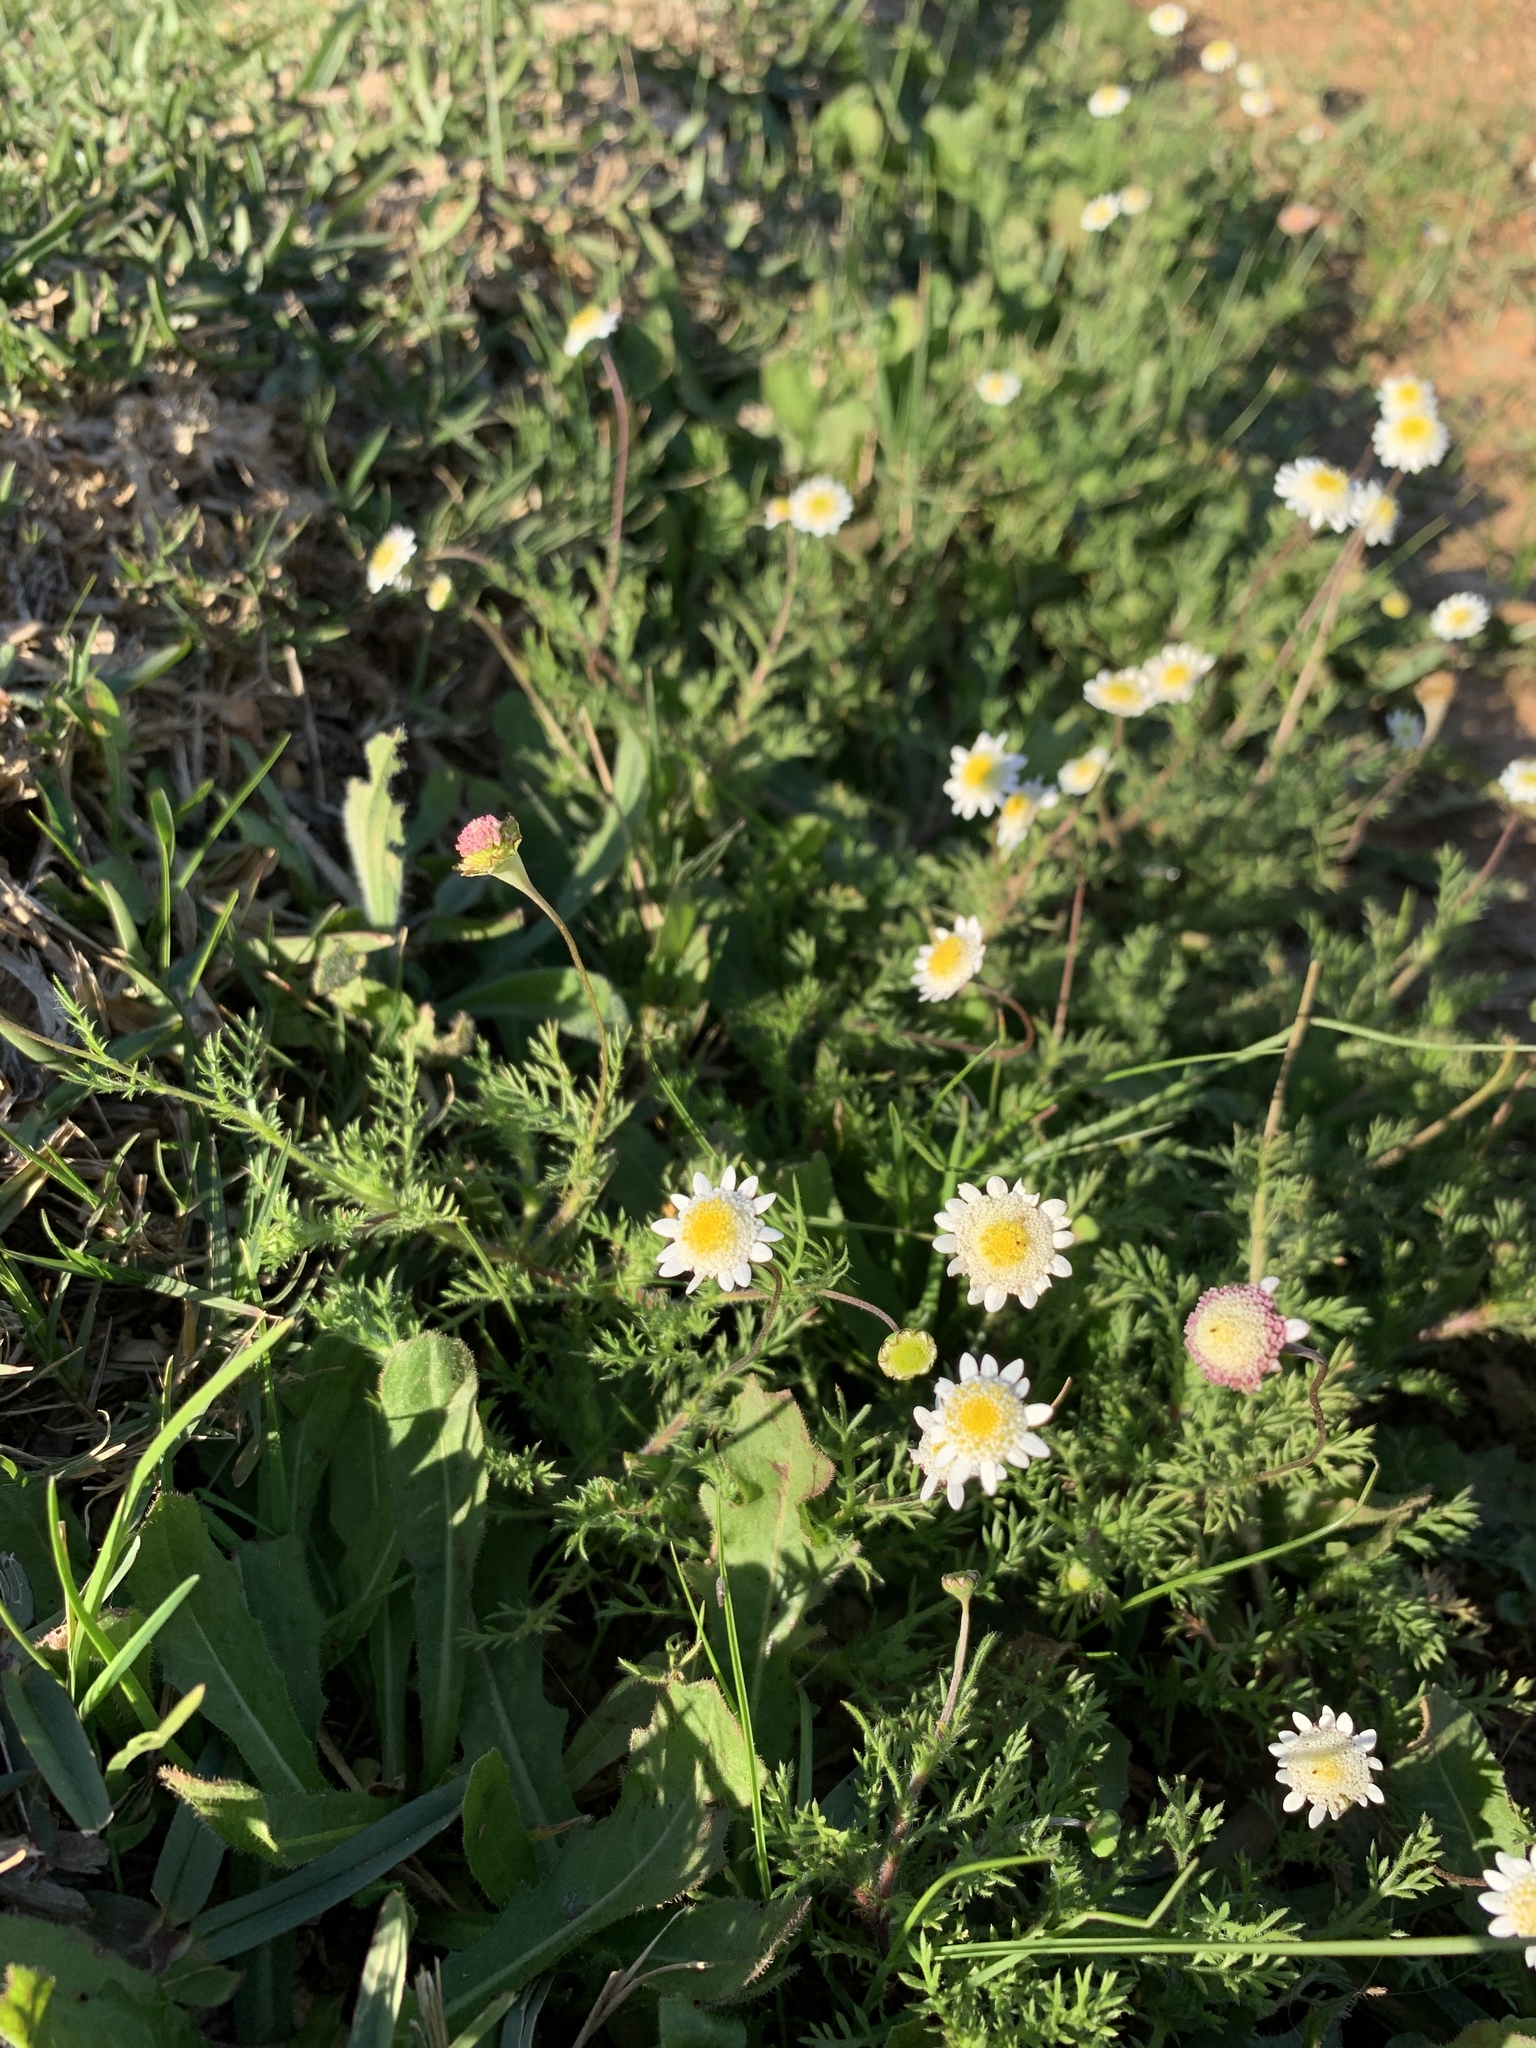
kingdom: Plantae
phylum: Tracheophyta
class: Magnoliopsida
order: Asterales
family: Asteraceae
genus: Cotula
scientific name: Cotula turbinata
